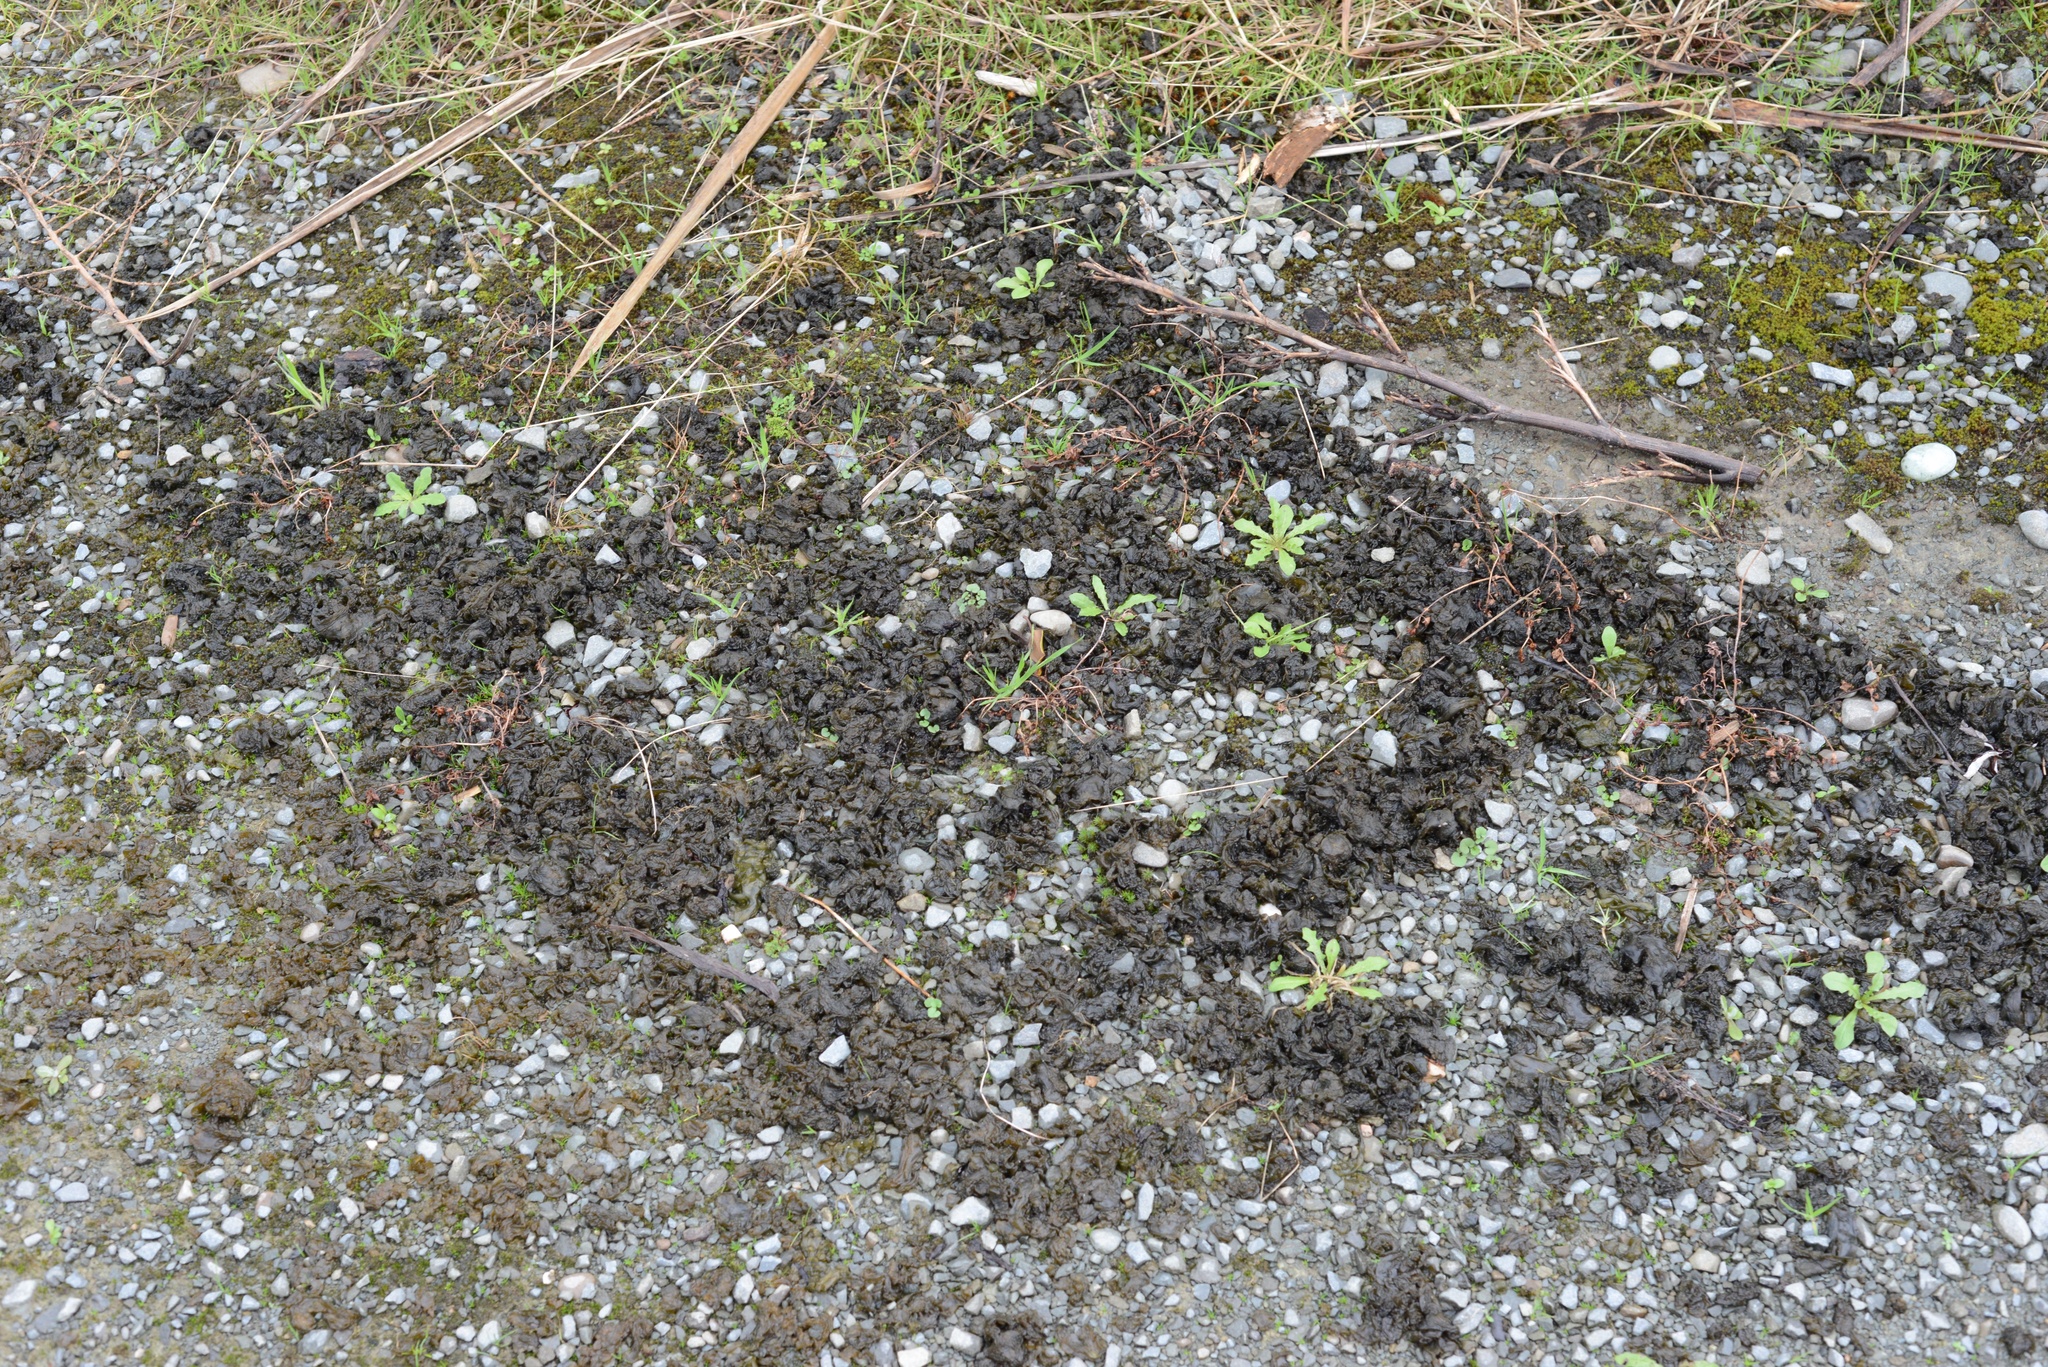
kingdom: Bacteria
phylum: Cyanobacteria
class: Cyanobacteriia
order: Cyanobacteriales
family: Nostocaceae
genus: Nostoc
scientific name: Nostoc commune
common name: Star jelly
